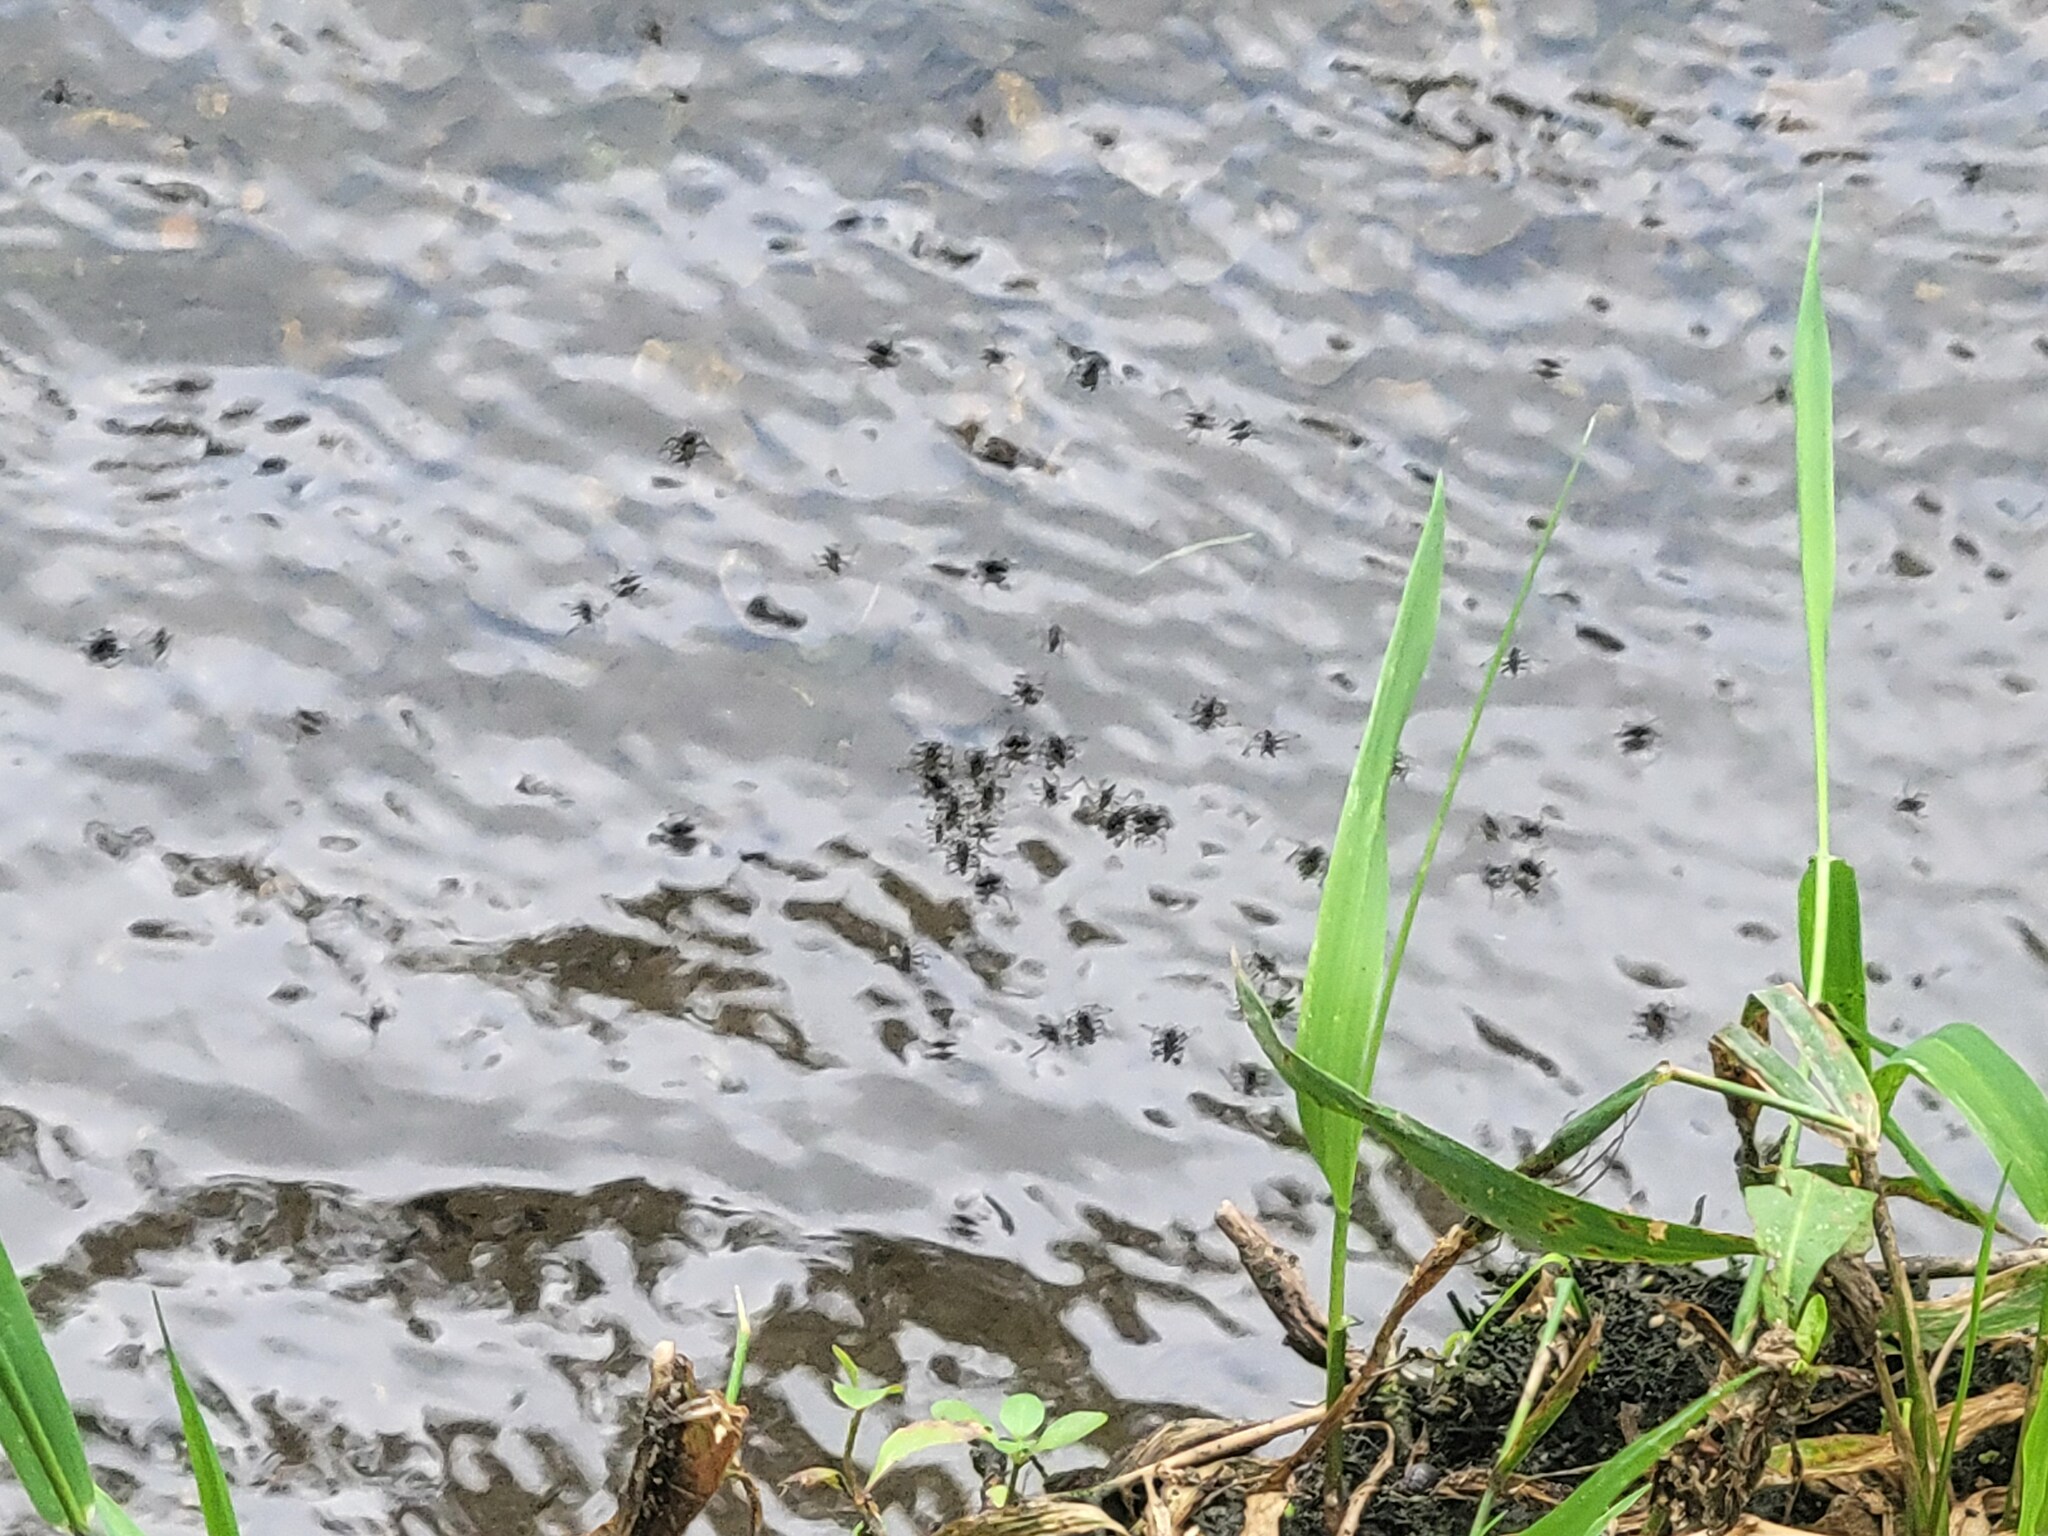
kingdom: Animalia
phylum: Arthropoda
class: Insecta
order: Hemiptera
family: Veliidae
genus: Rhagovelia
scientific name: Rhagovelia
